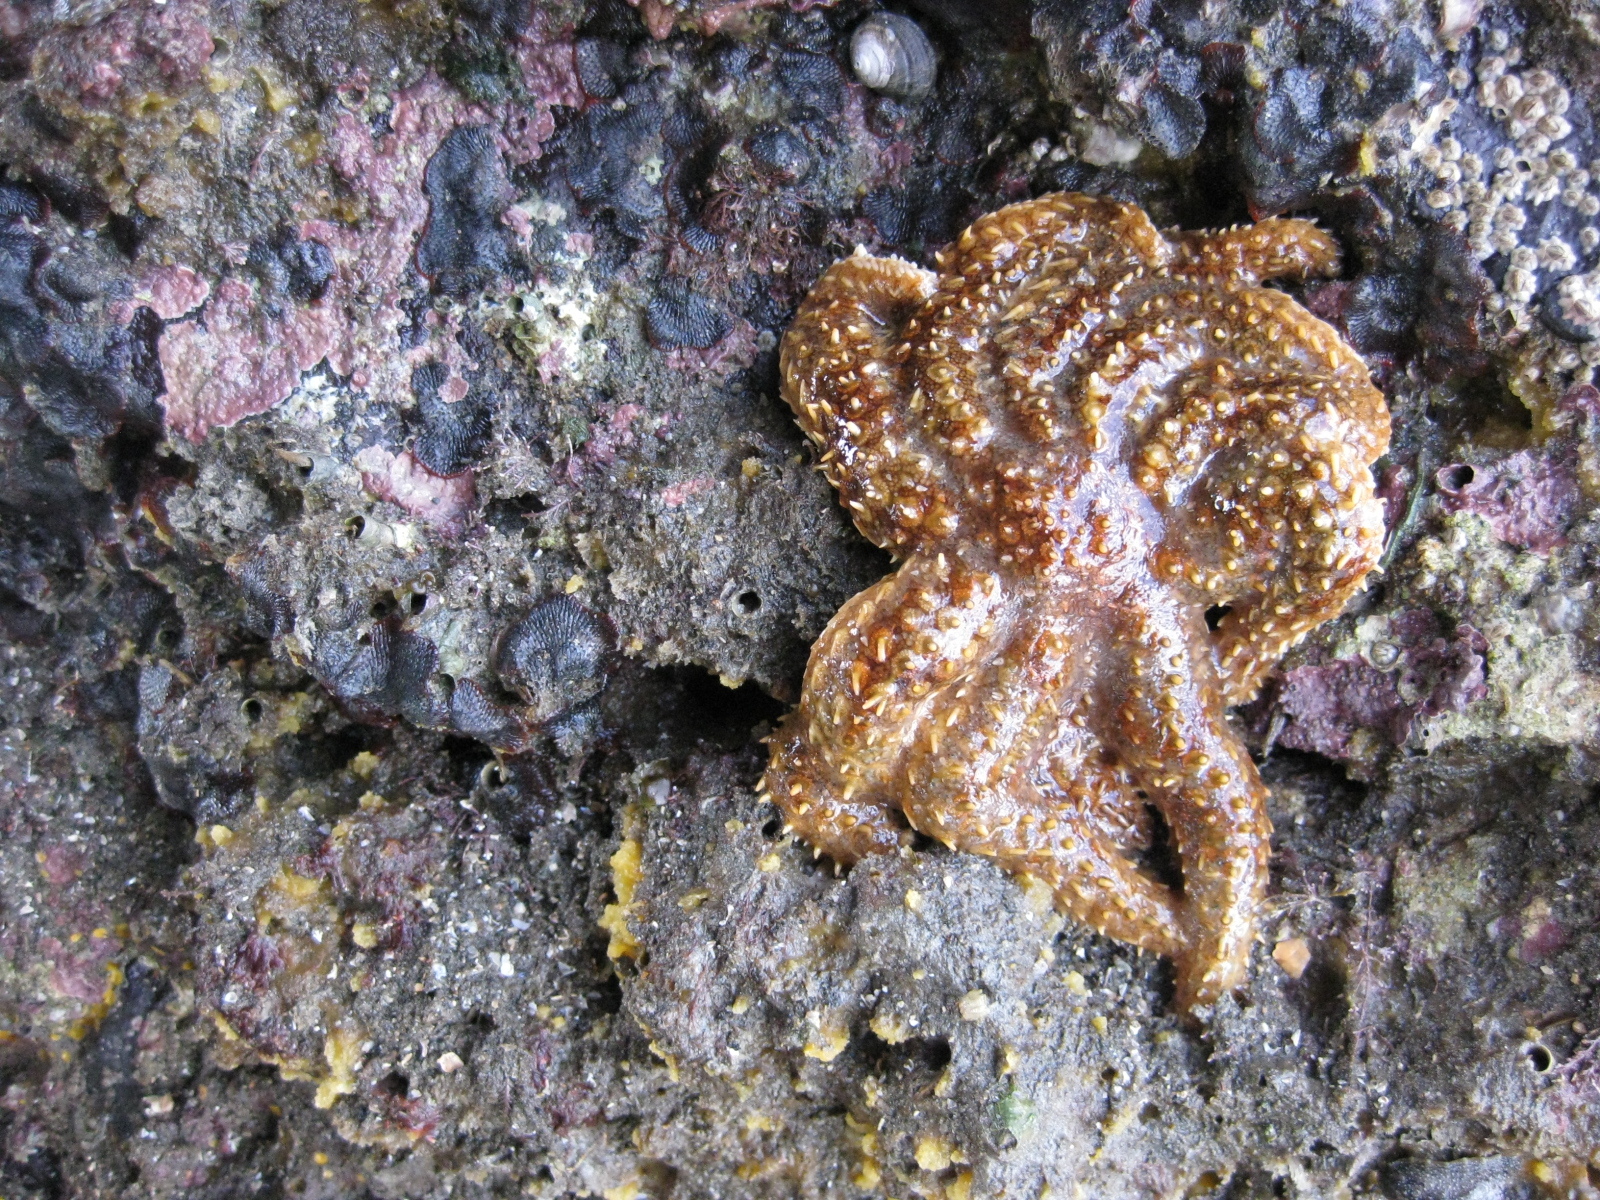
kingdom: Animalia
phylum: Echinodermata
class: Asteroidea
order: Forcipulatida
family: Asteriidae
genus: Coscinasterias
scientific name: Coscinasterias muricata
